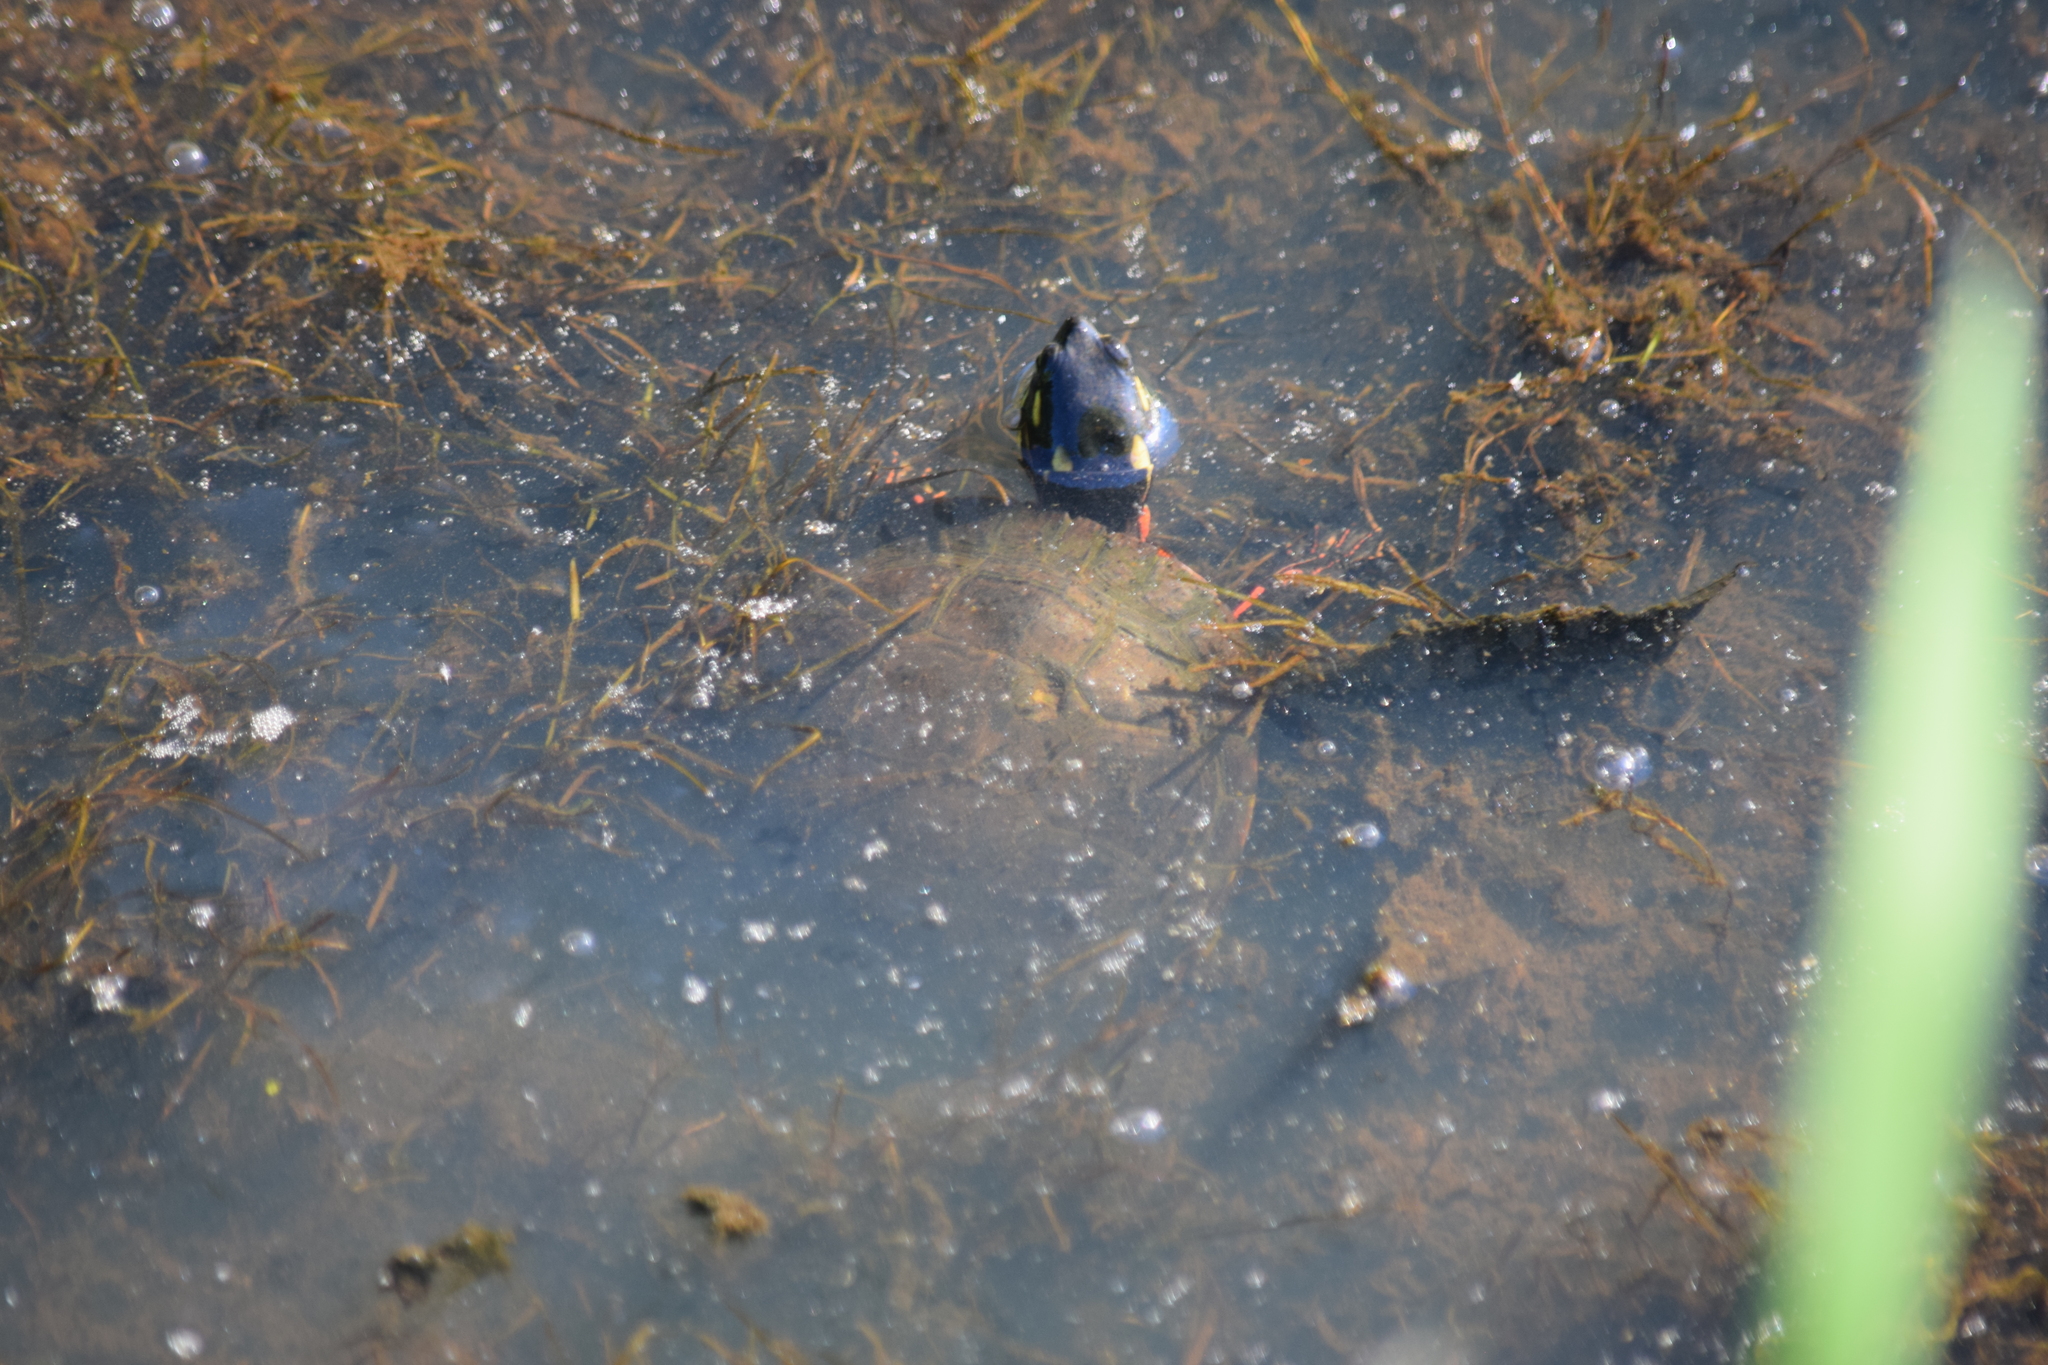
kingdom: Animalia
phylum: Chordata
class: Testudines
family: Emydidae
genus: Chrysemys
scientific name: Chrysemys picta
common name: Painted turtle
